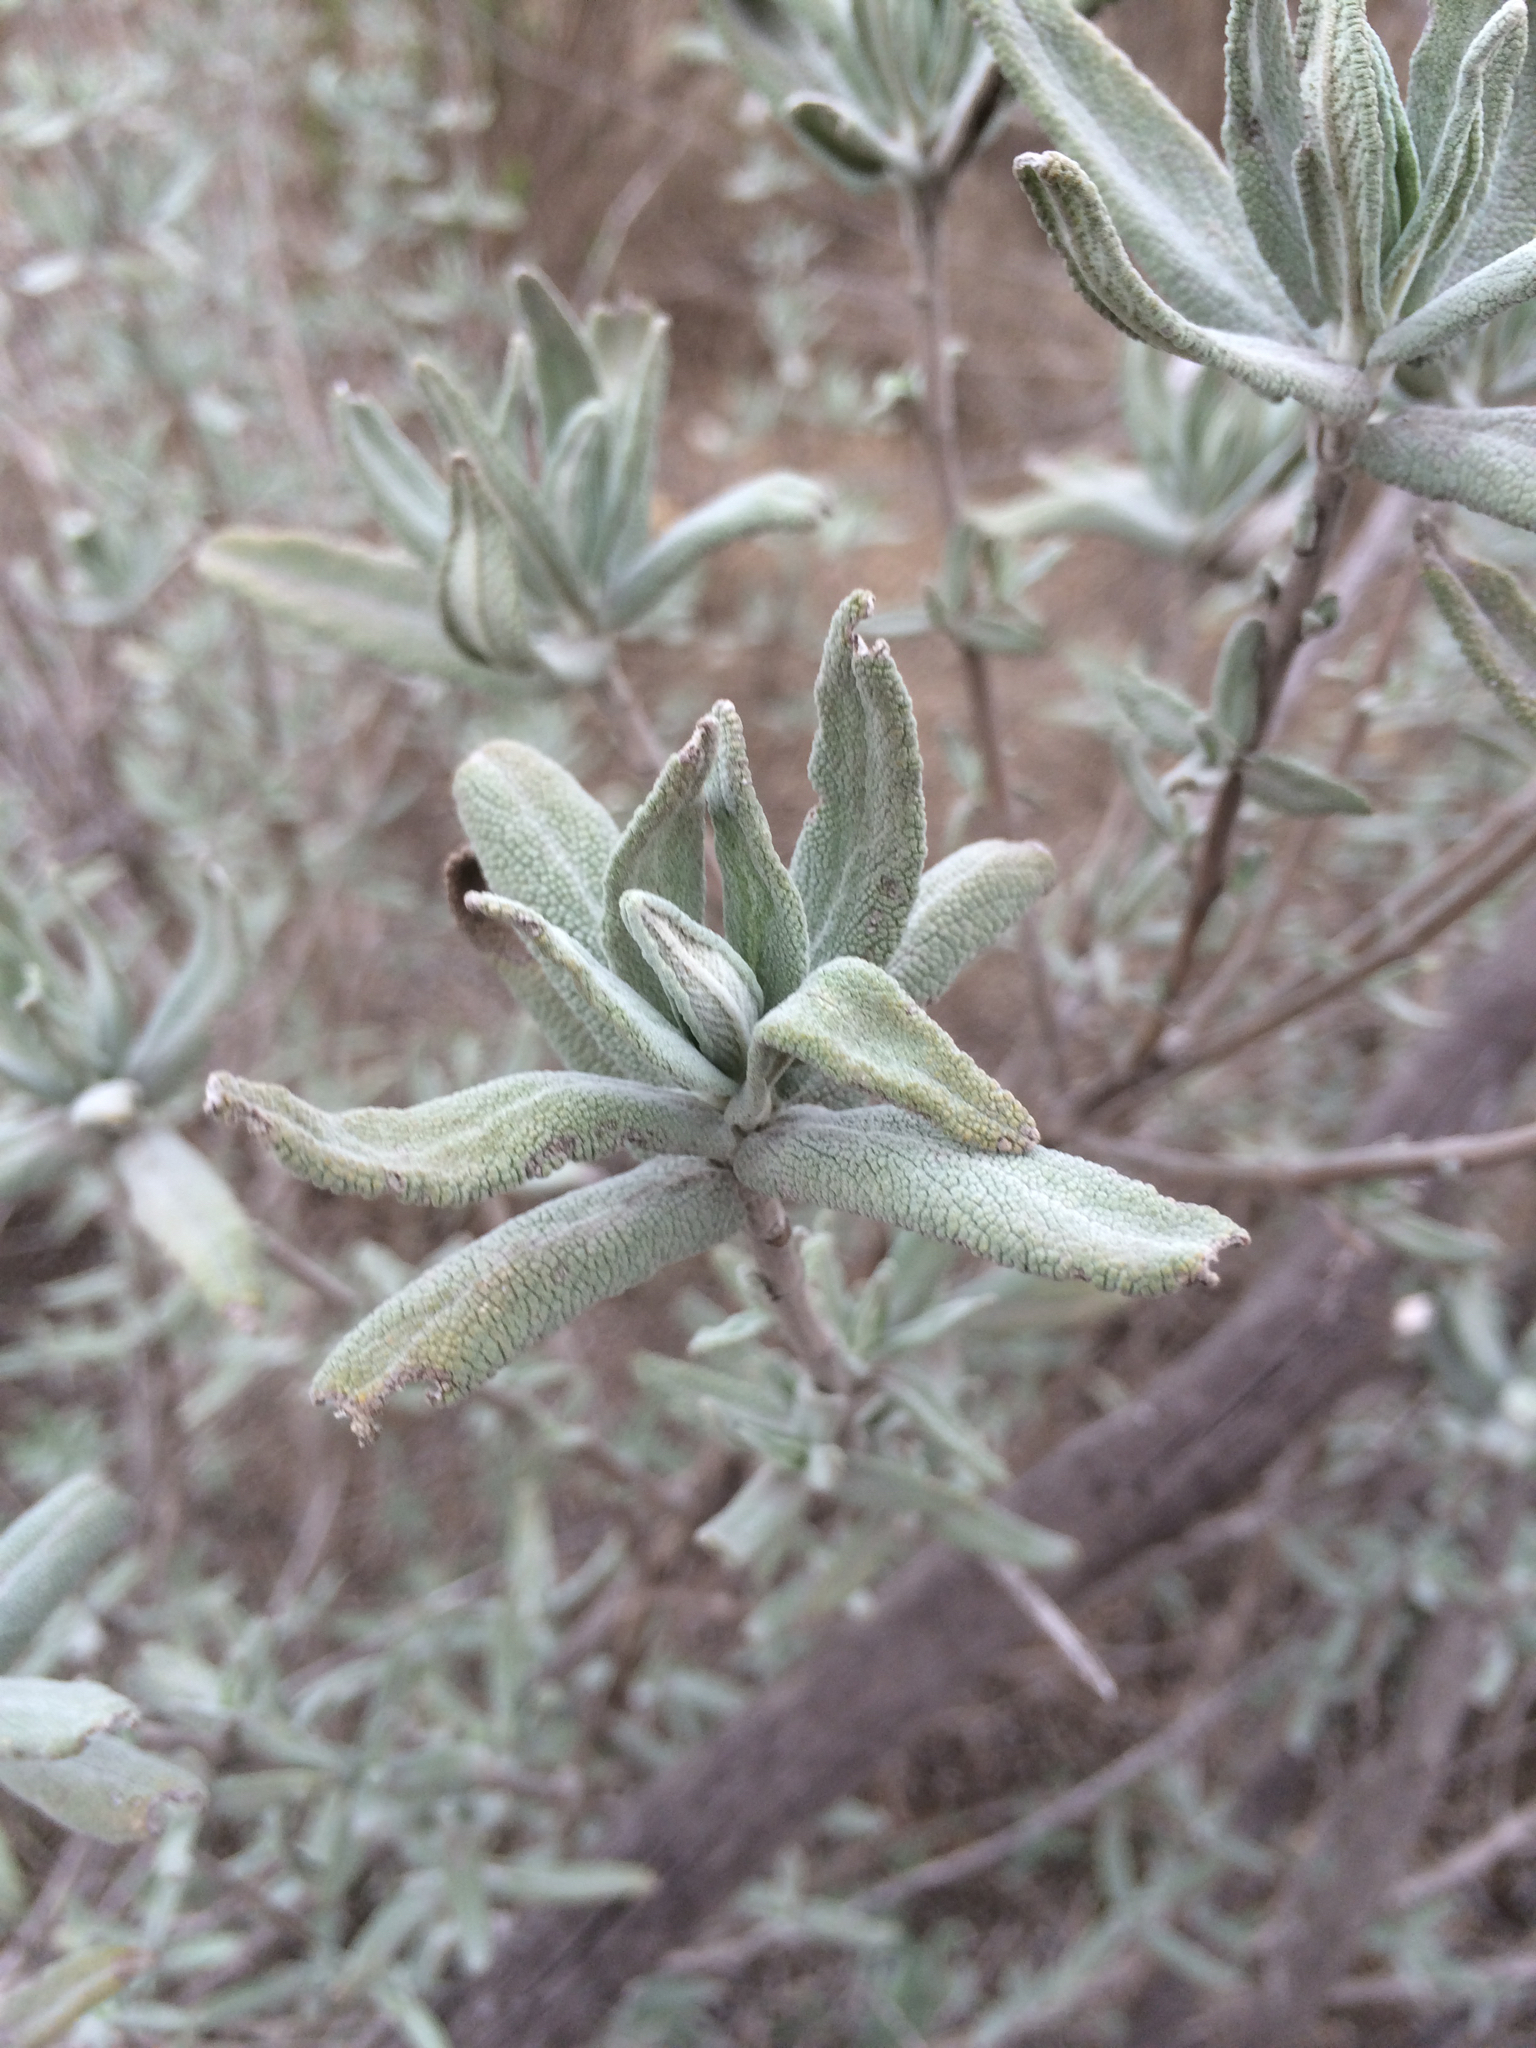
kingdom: Plantae
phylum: Tracheophyta
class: Magnoliopsida
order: Lamiales
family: Lamiaceae
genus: Salvia
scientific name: Salvia leucophylla
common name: Purple sage
